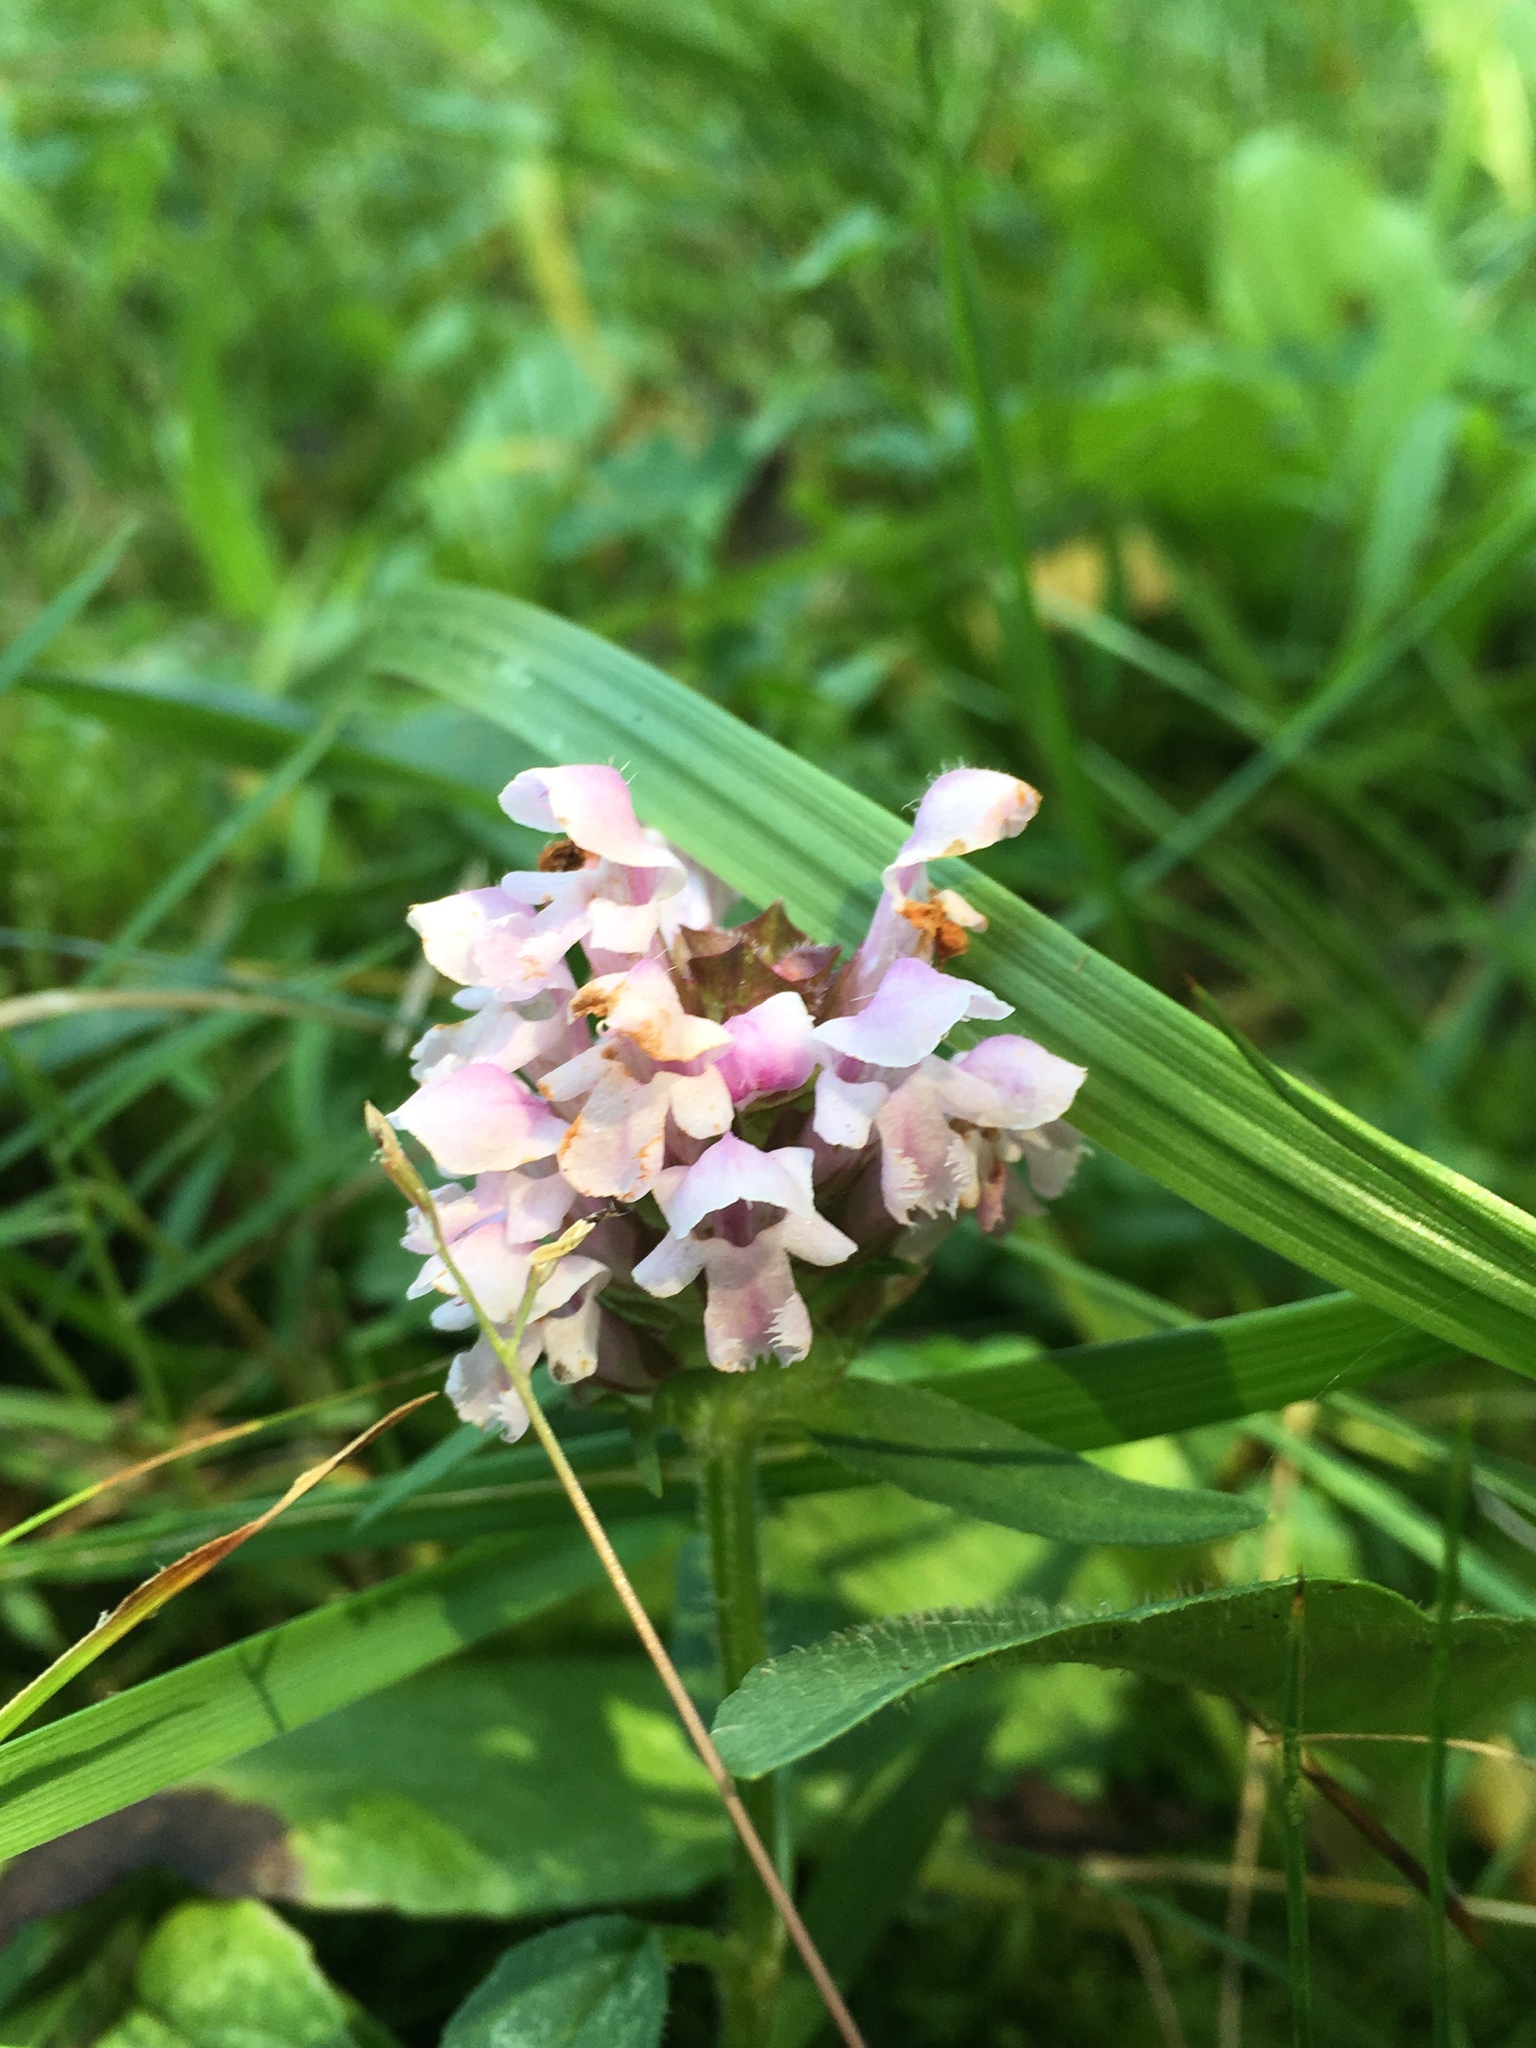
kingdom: Plantae
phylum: Tracheophyta
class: Magnoliopsida
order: Lamiales
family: Lamiaceae
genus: Prunella
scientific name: Prunella vulgaris
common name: Heal-all
